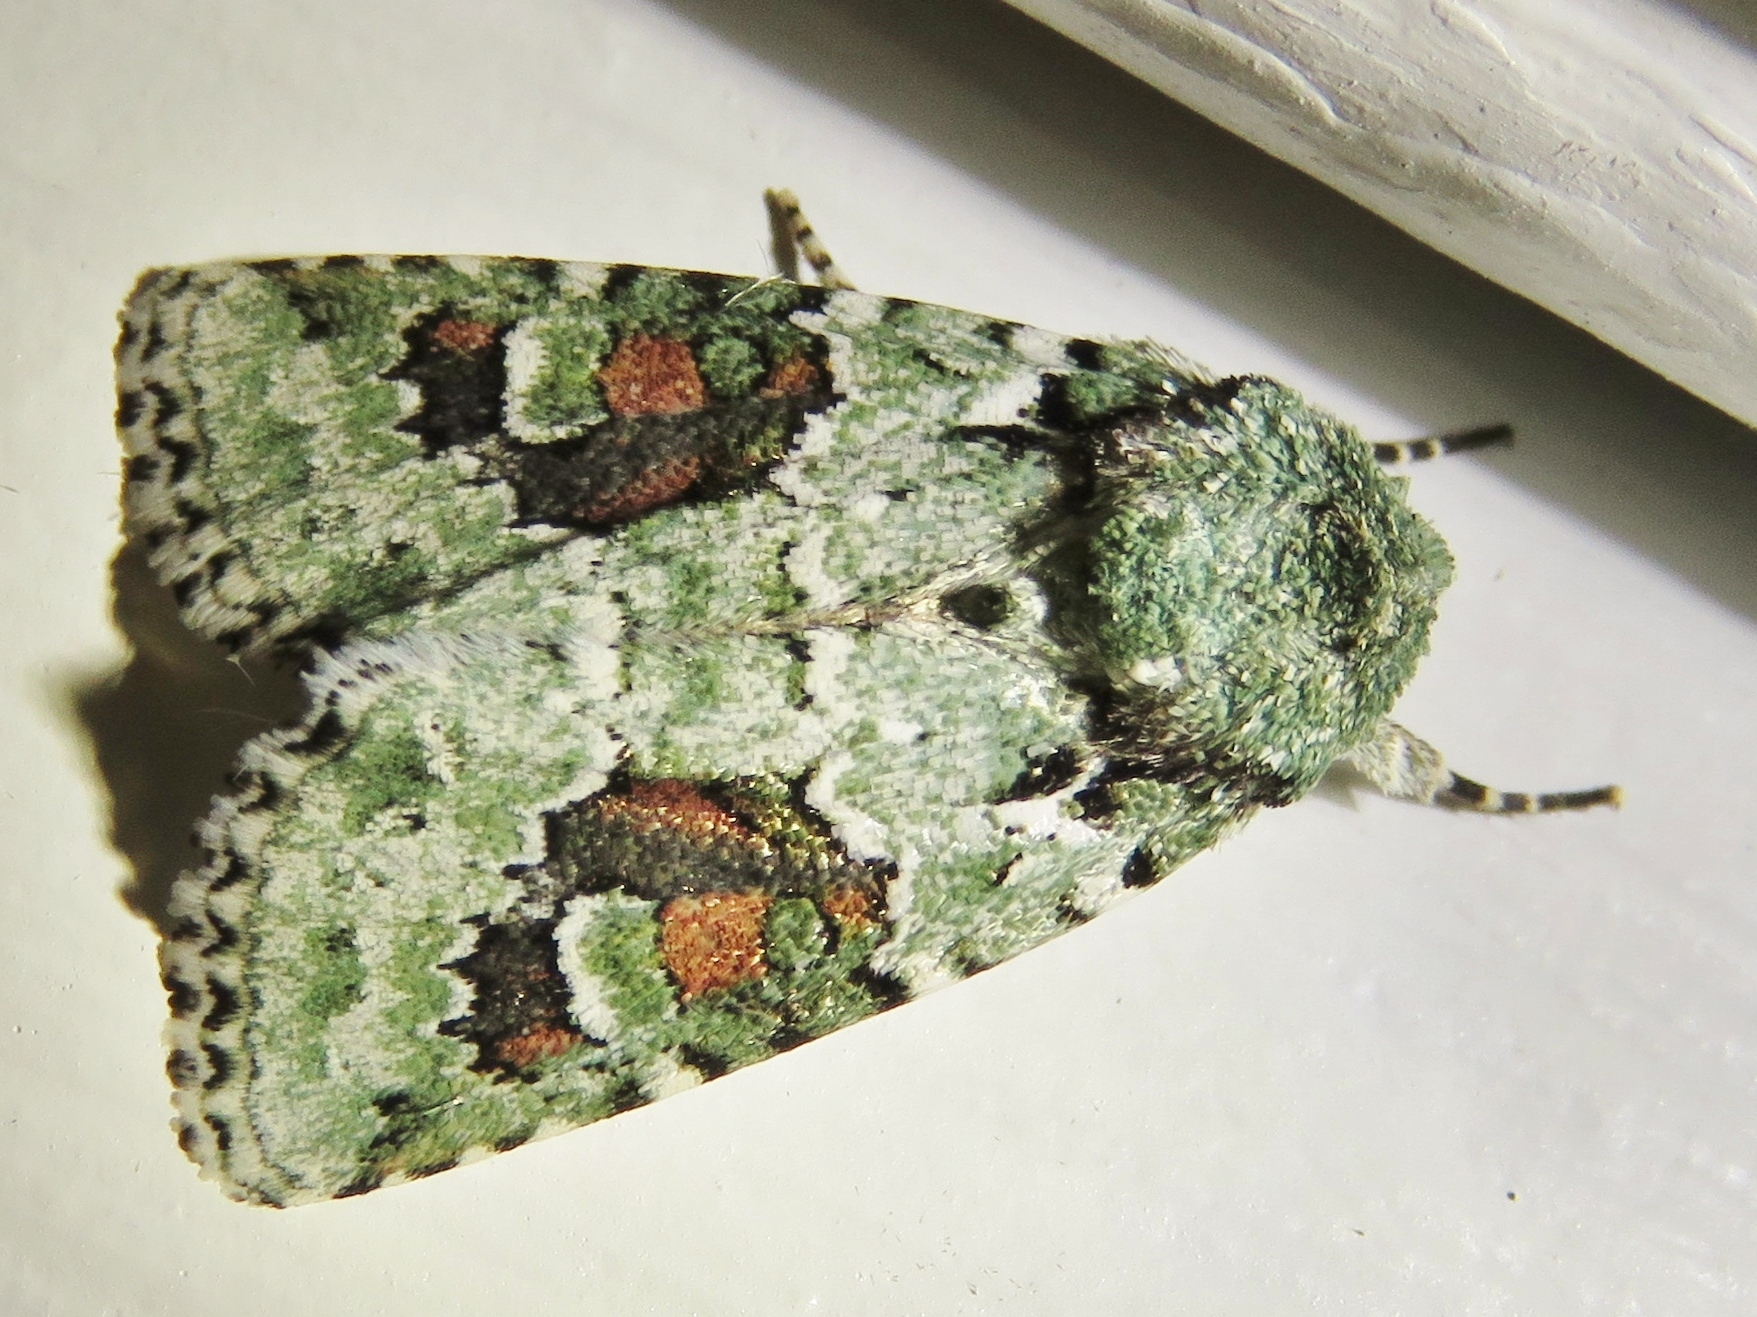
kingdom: Animalia
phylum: Arthropoda
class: Insecta
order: Lepidoptera
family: Noctuidae
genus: Lacinipolia
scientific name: Lacinipolia laudabilis
